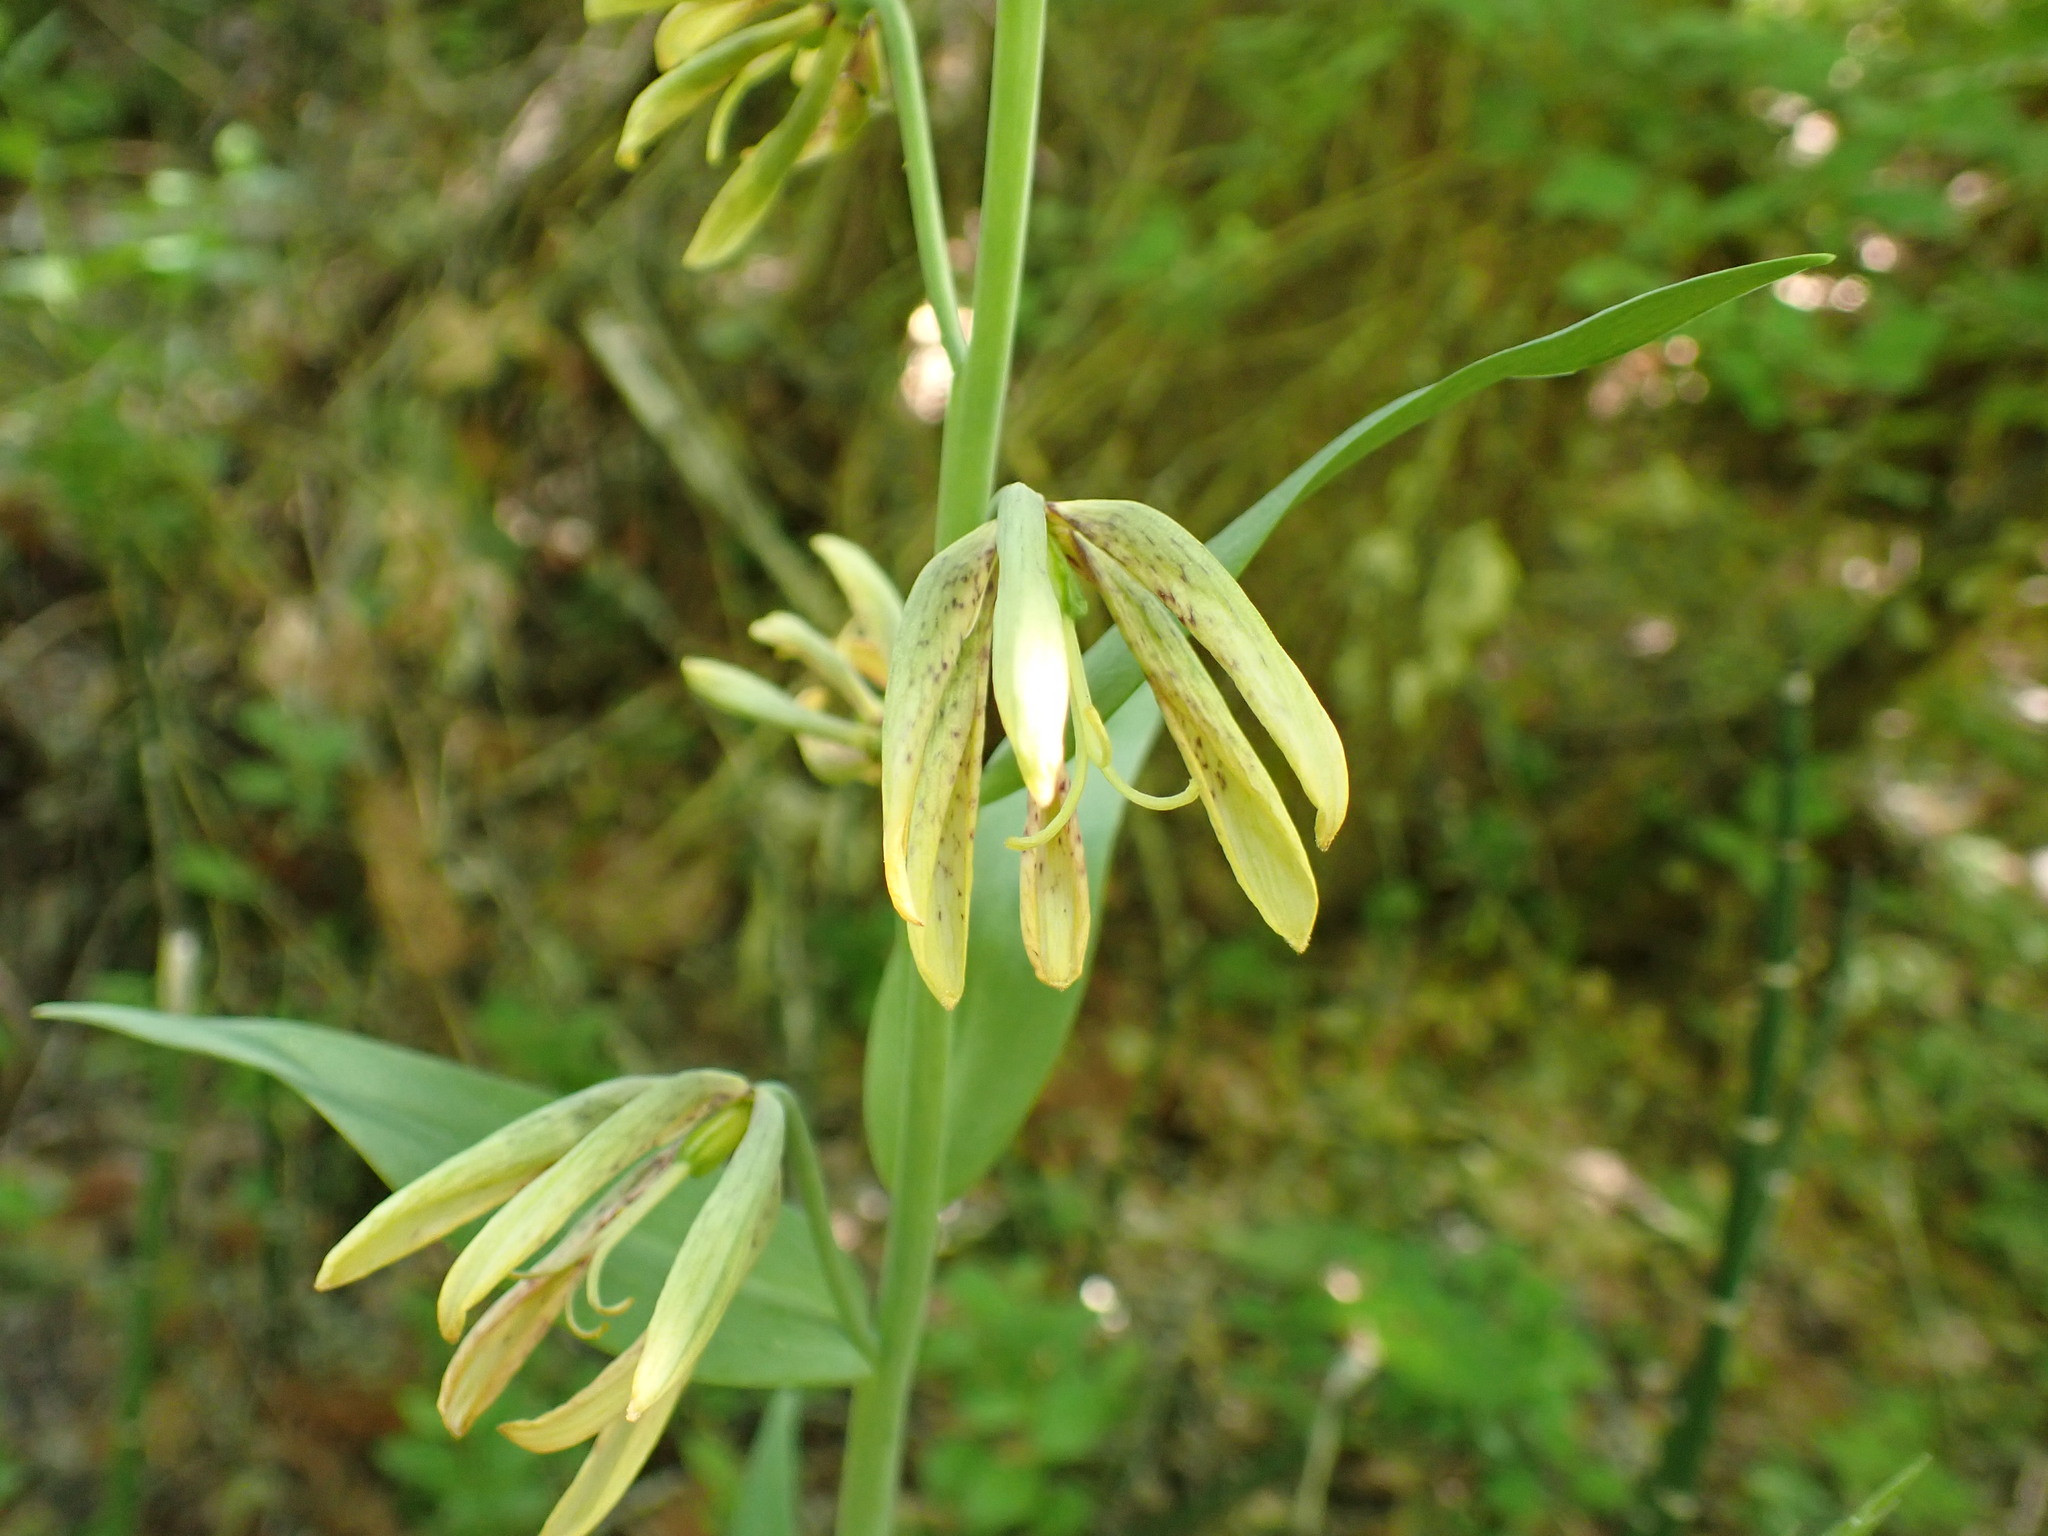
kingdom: Plantae
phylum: Tracheophyta
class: Liliopsida
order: Liliales
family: Liliaceae
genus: Fritillaria
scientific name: Fritillaria affinis
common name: Ojai fritillary
